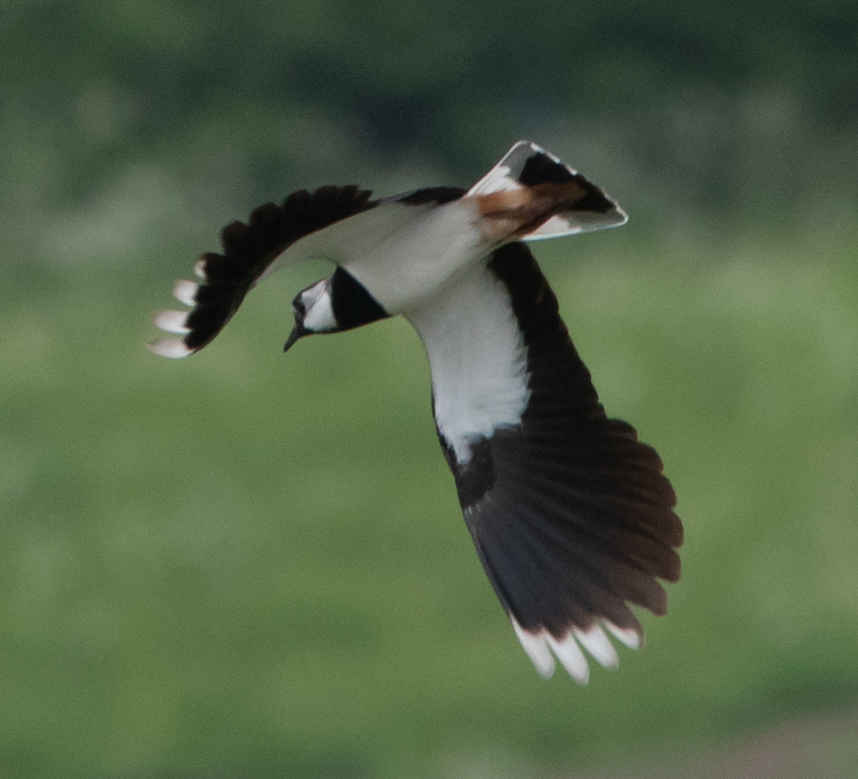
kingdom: Animalia
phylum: Chordata
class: Aves
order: Charadriiformes
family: Charadriidae
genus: Vanellus
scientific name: Vanellus vanellus
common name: Northern lapwing
